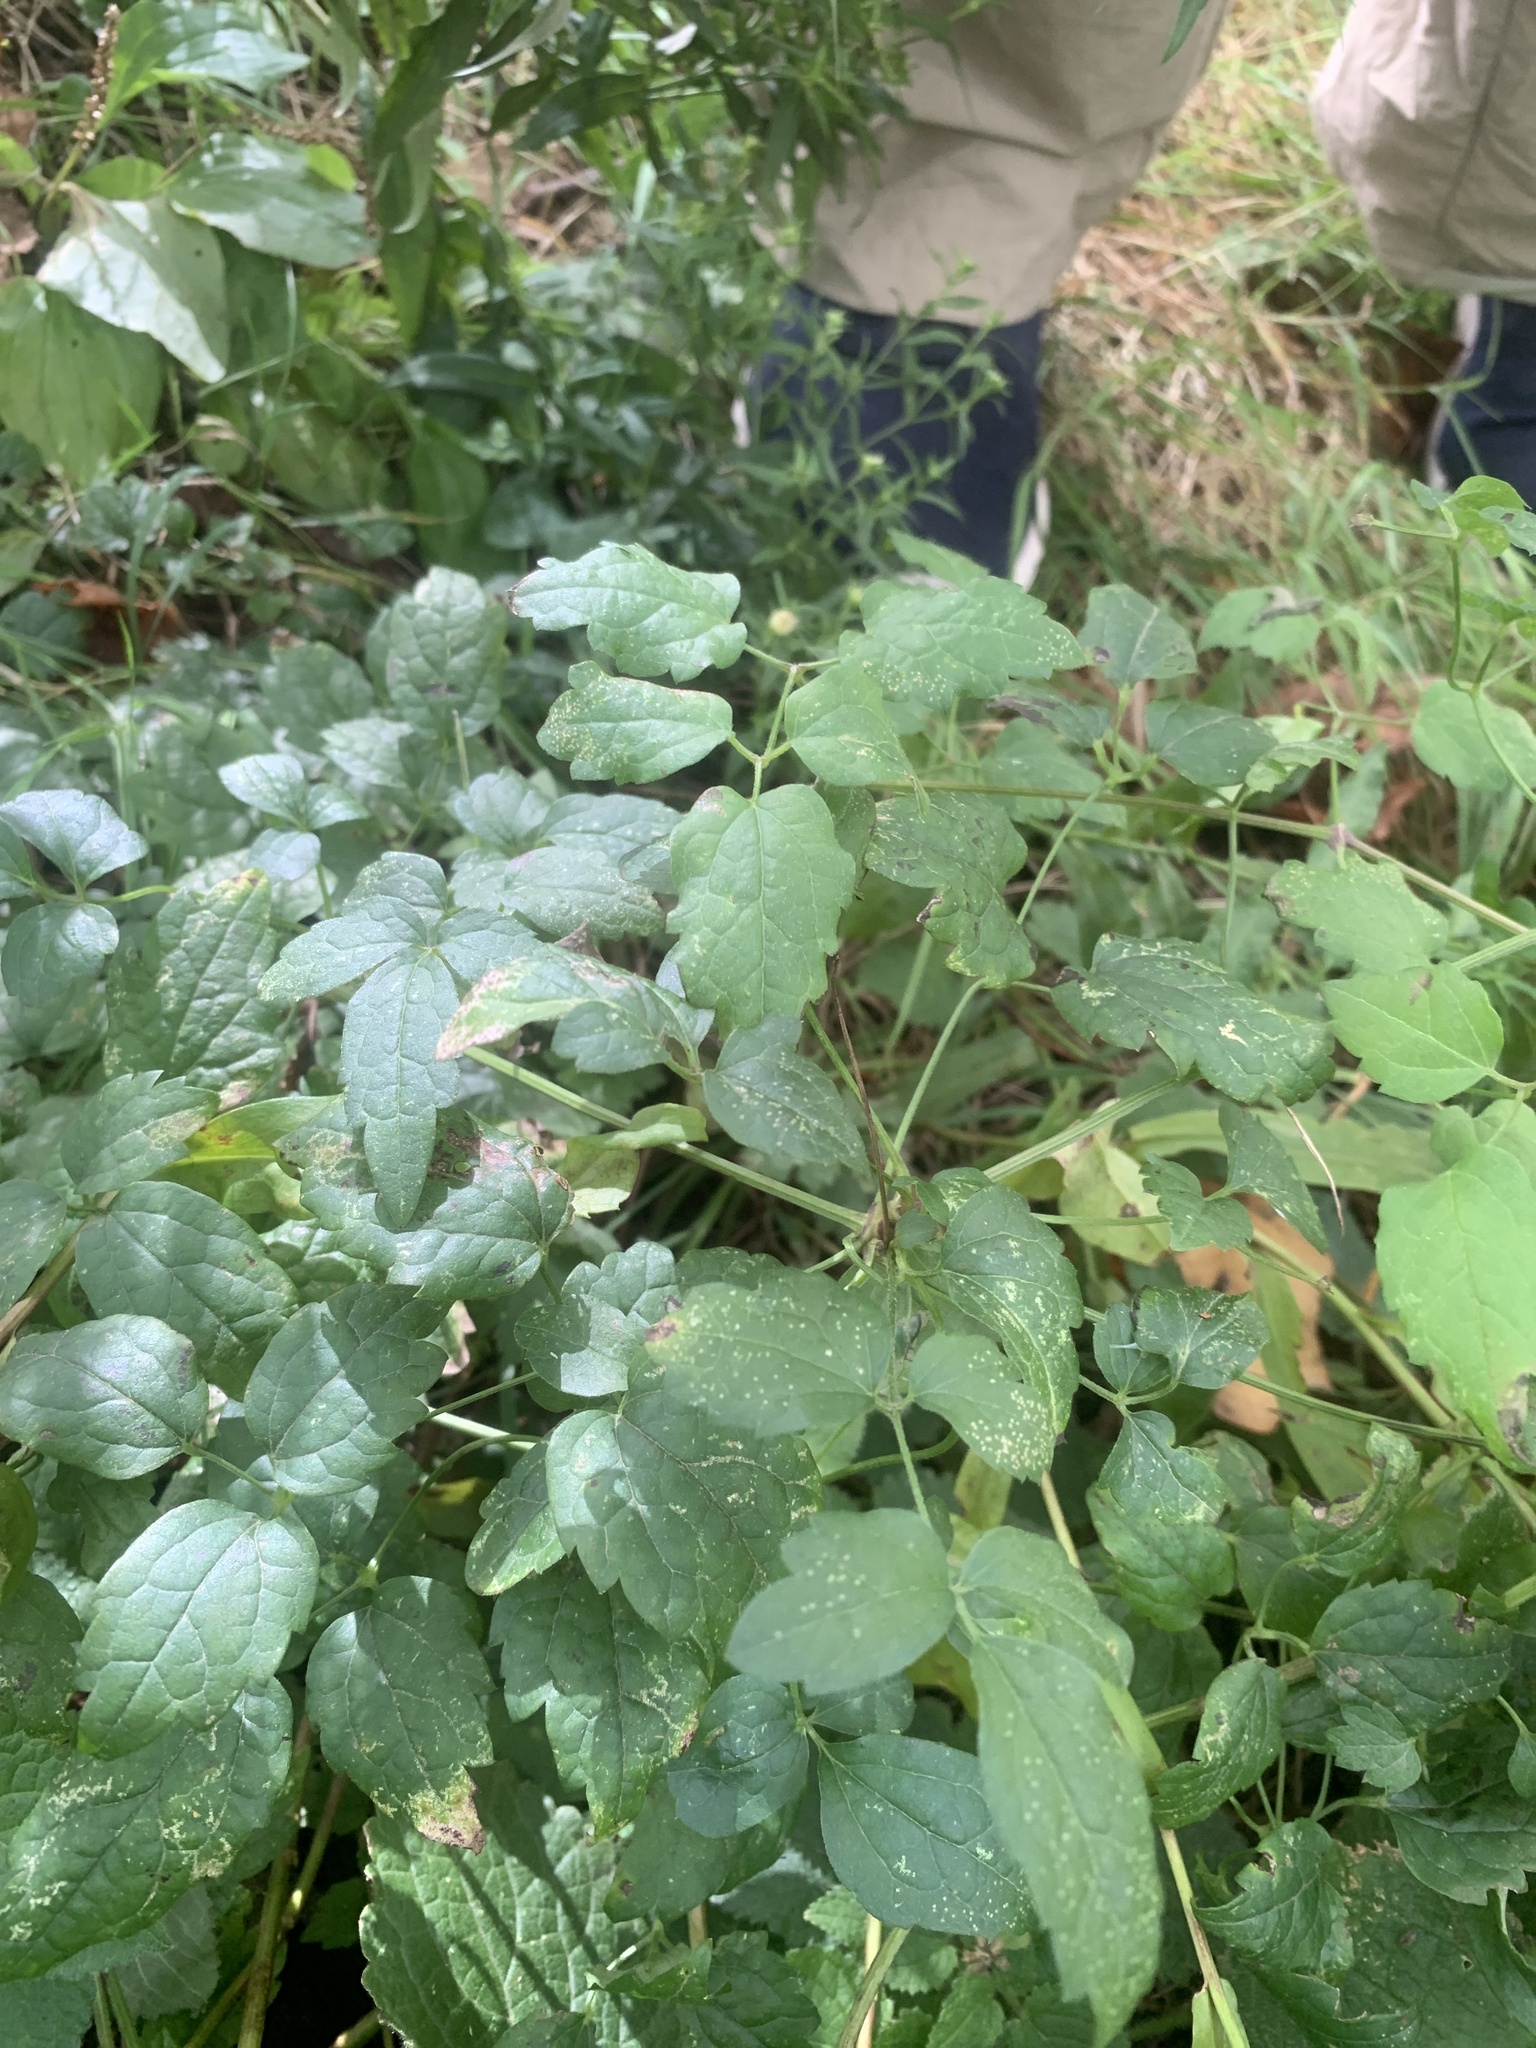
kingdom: Plantae
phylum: Tracheophyta
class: Magnoliopsida
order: Ranunculales
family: Ranunculaceae
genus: Clematis
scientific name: Clematis vitalba
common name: Evergreen clematis
